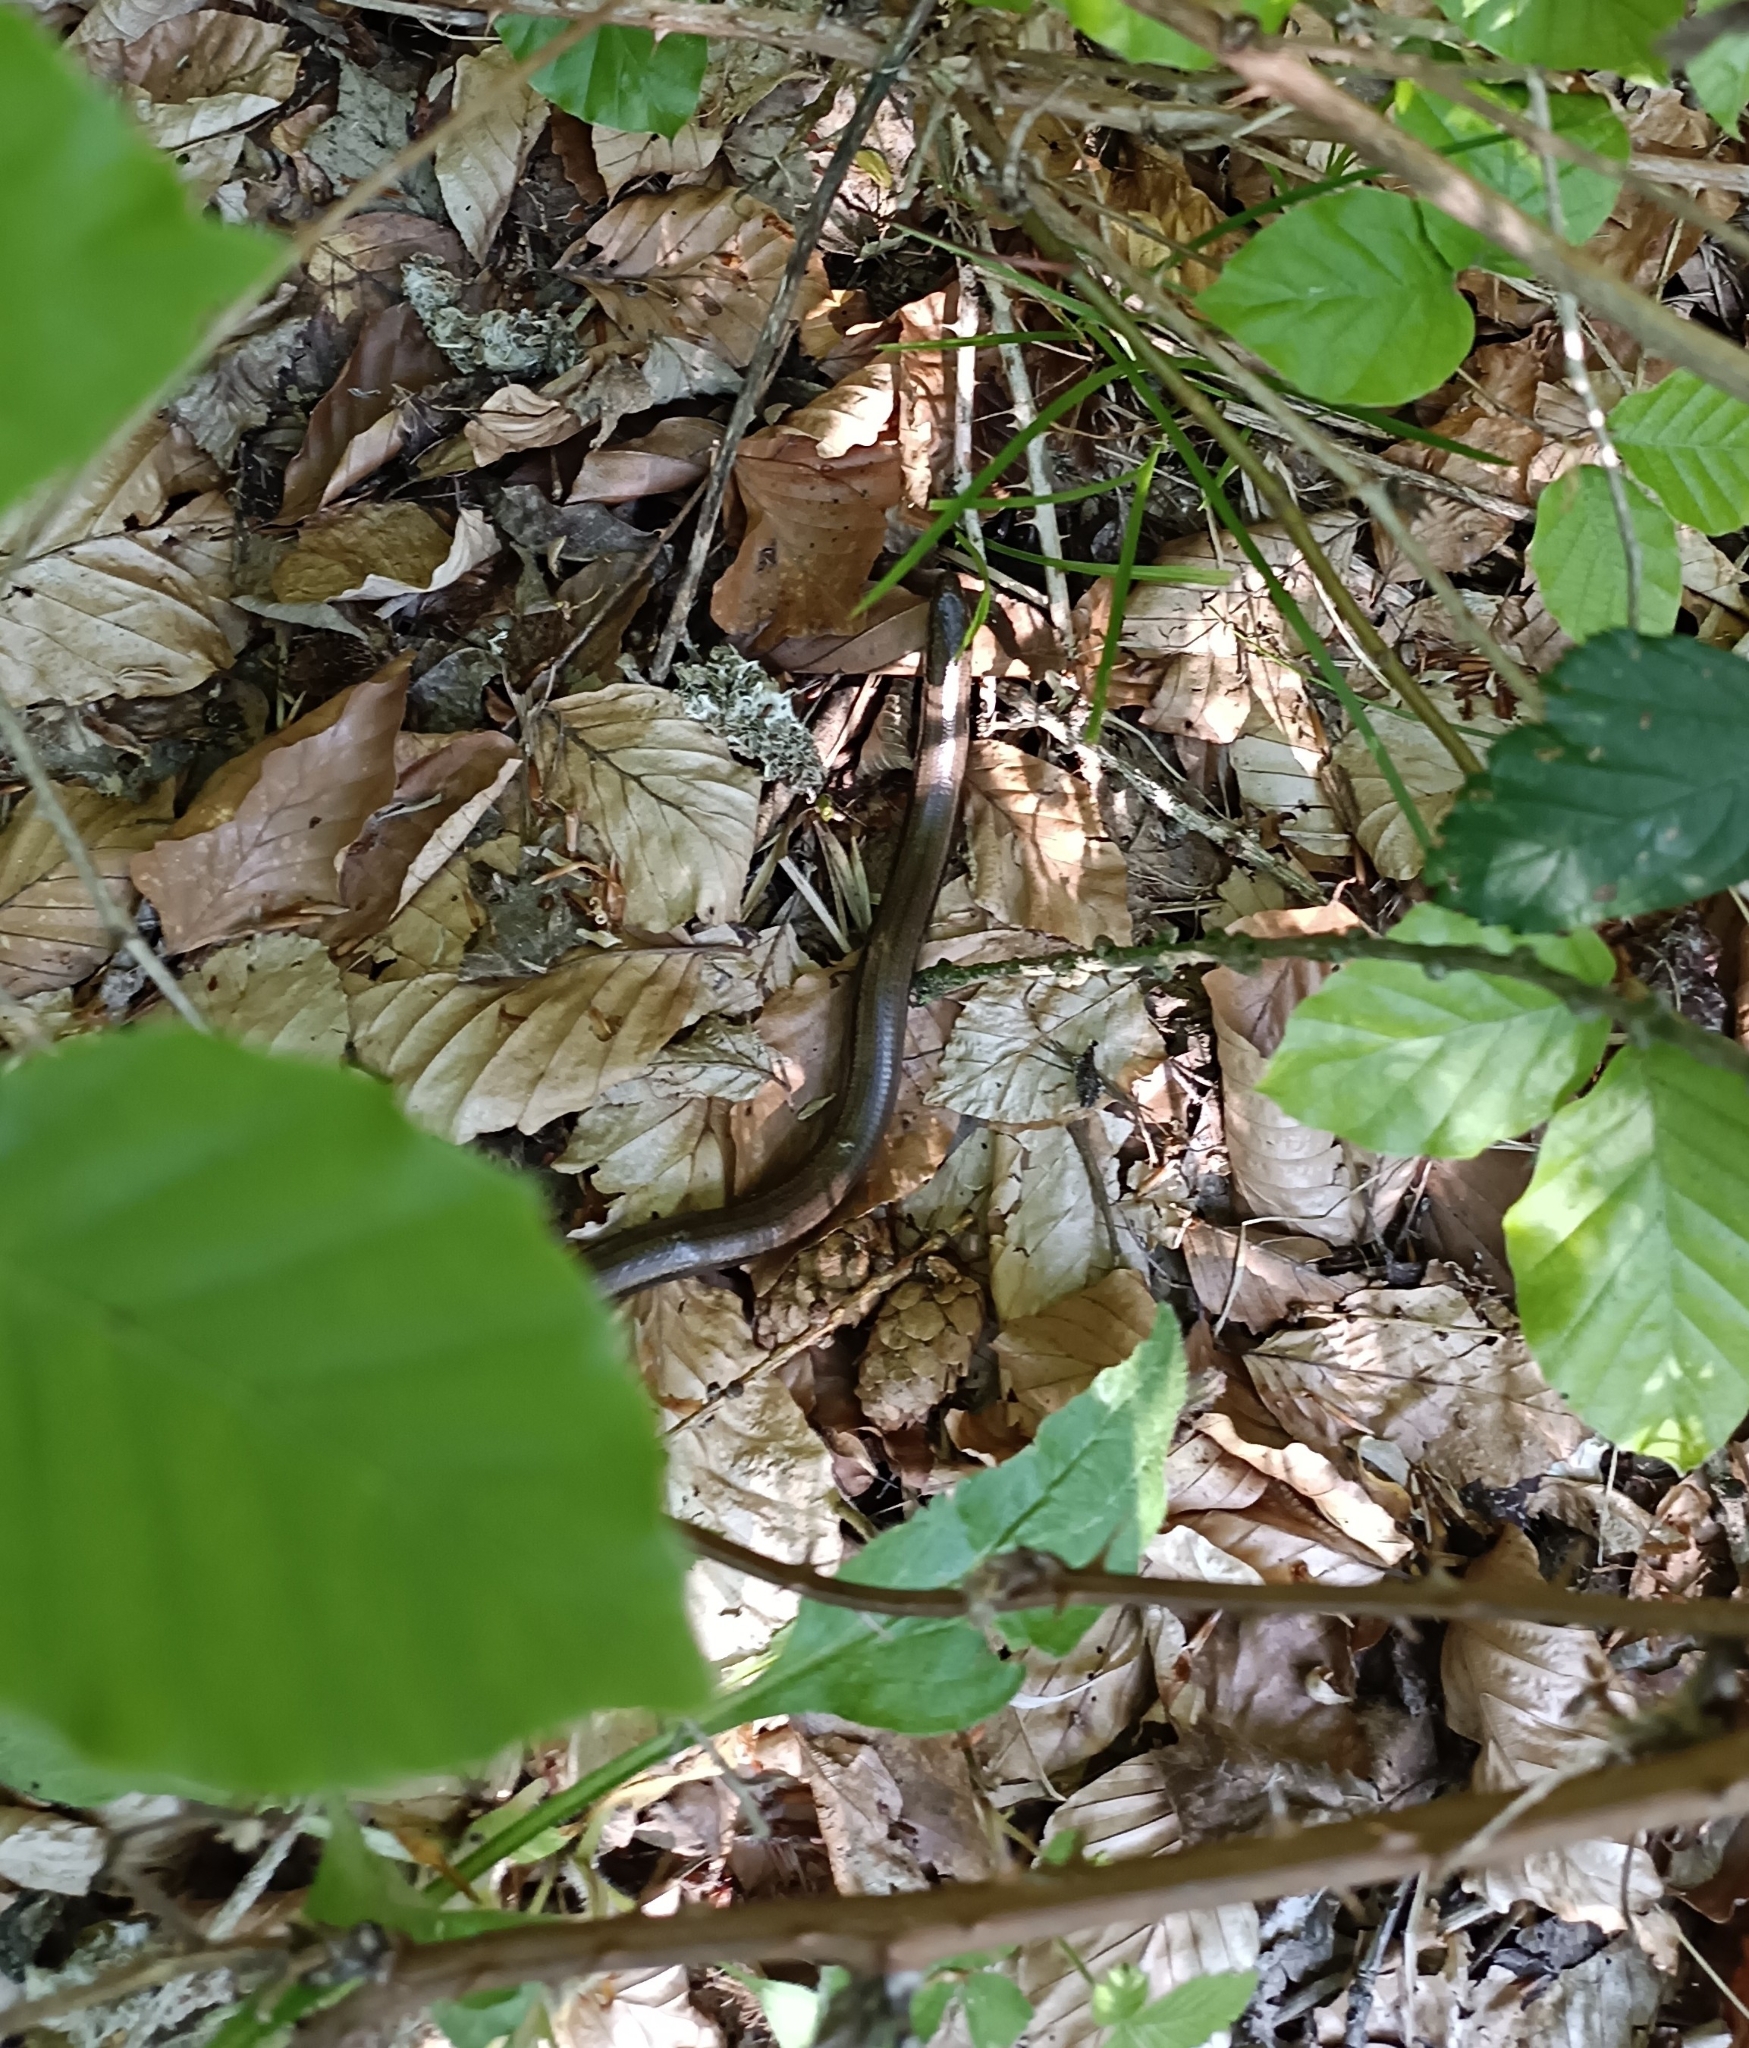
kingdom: Animalia
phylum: Chordata
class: Squamata
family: Anguidae
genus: Anguis
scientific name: Anguis fragilis
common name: Slow worm
